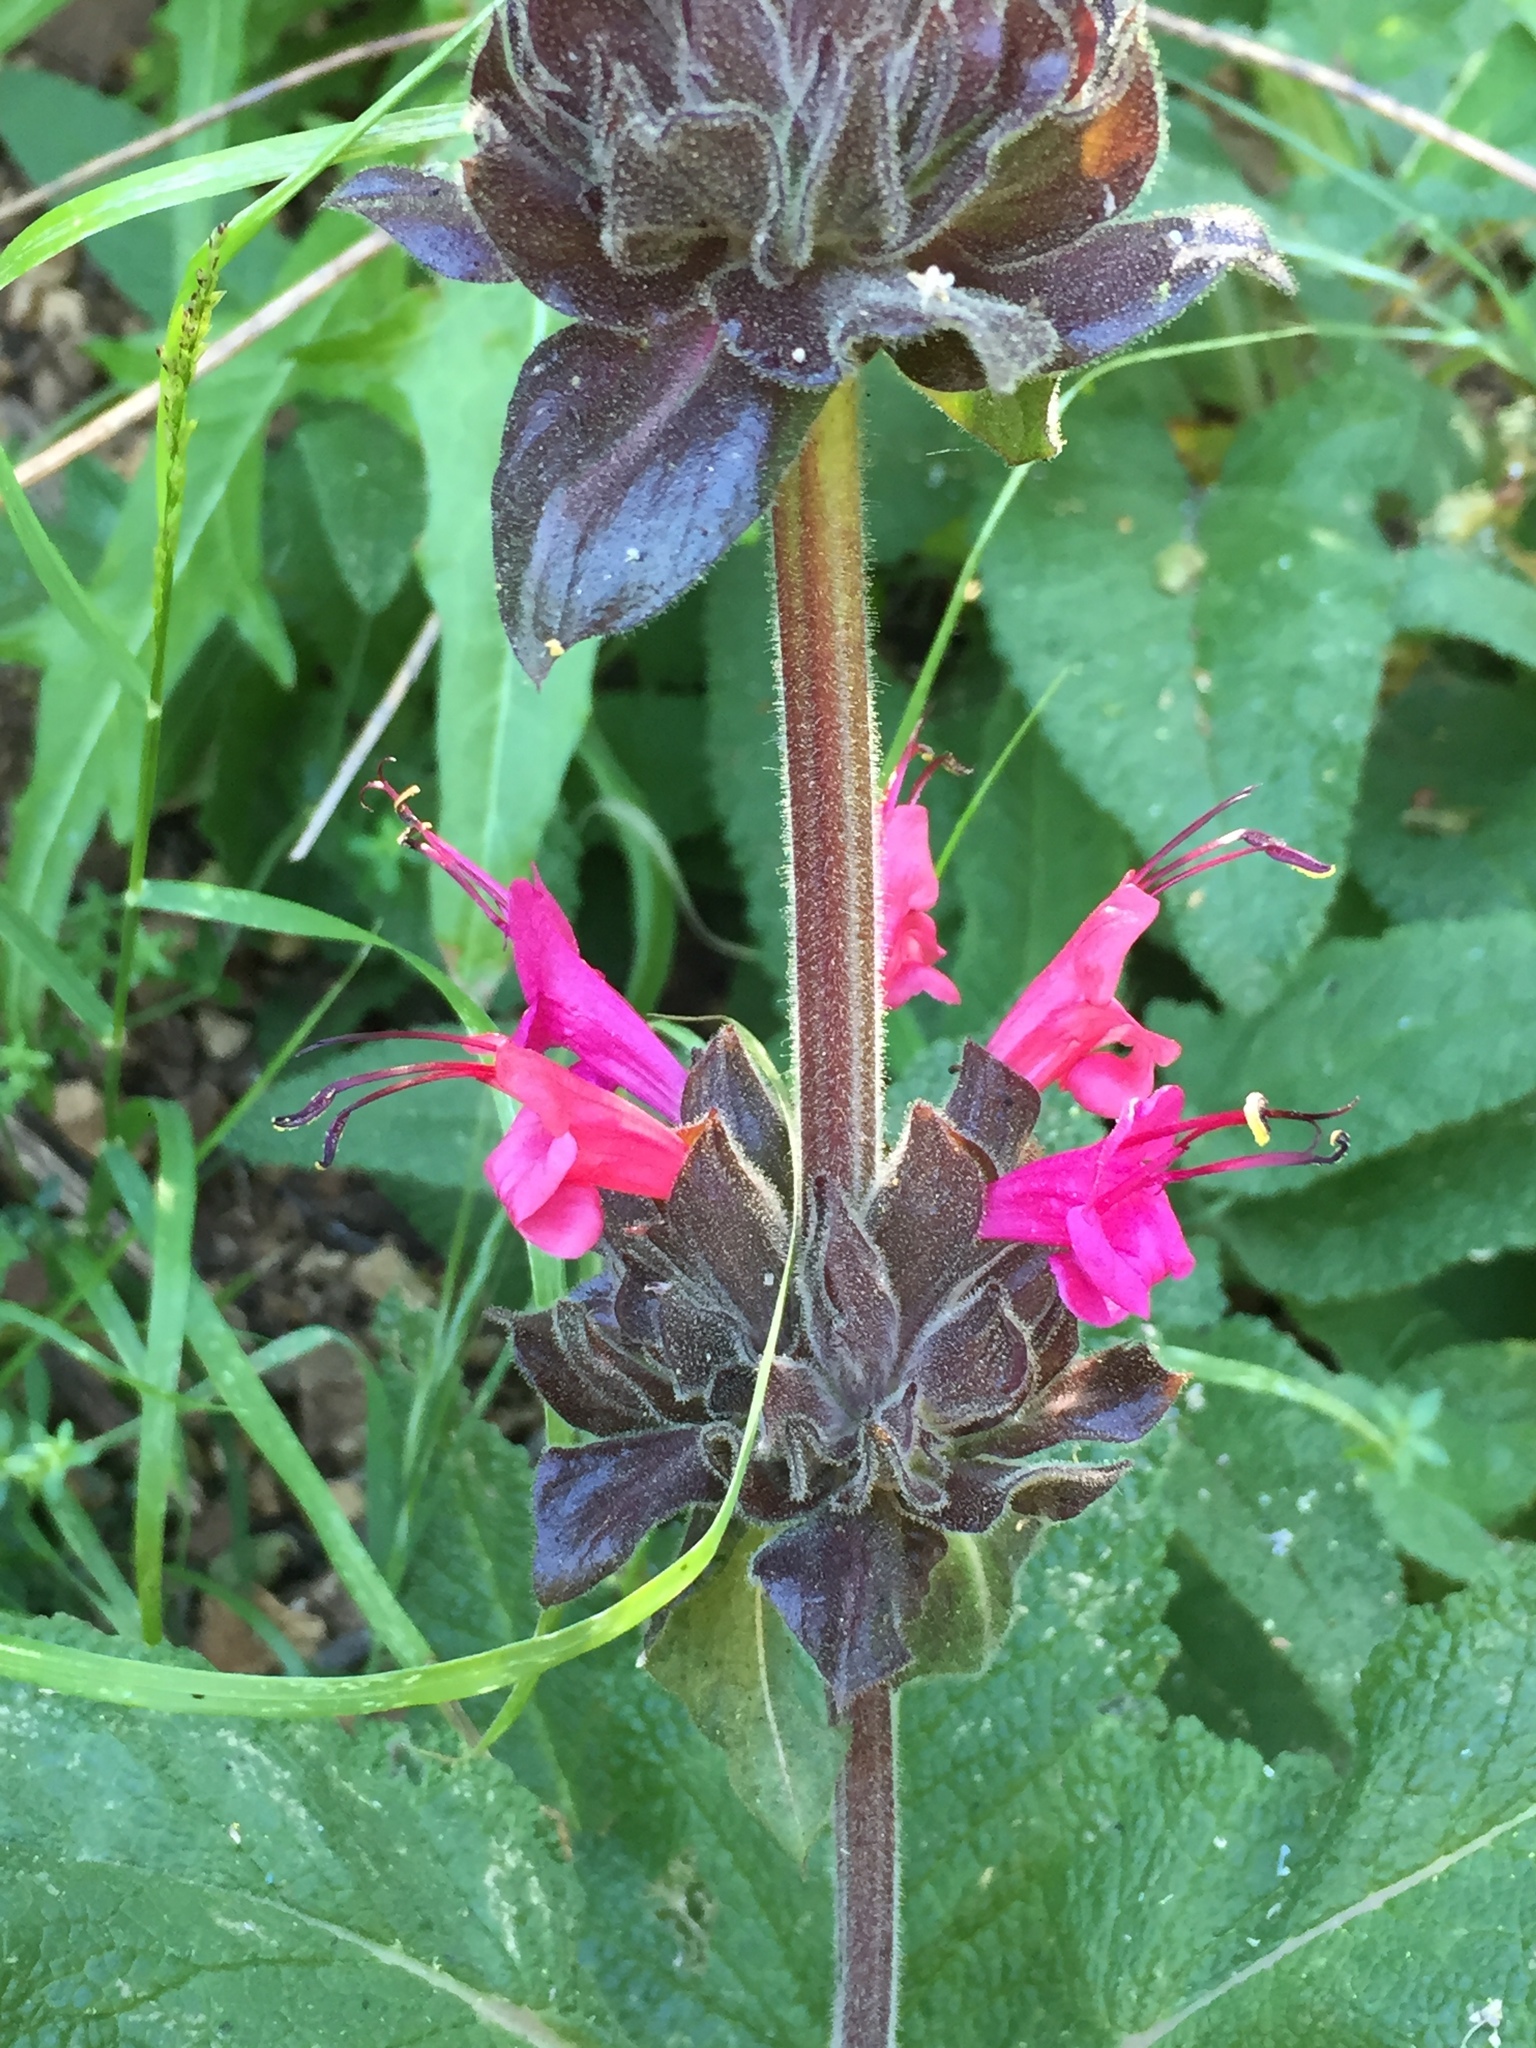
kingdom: Plantae
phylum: Tracheophyta
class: Magnoliopsida
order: Lamiales
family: Lamiaceae
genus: Salvia
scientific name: Salvia spathacea
